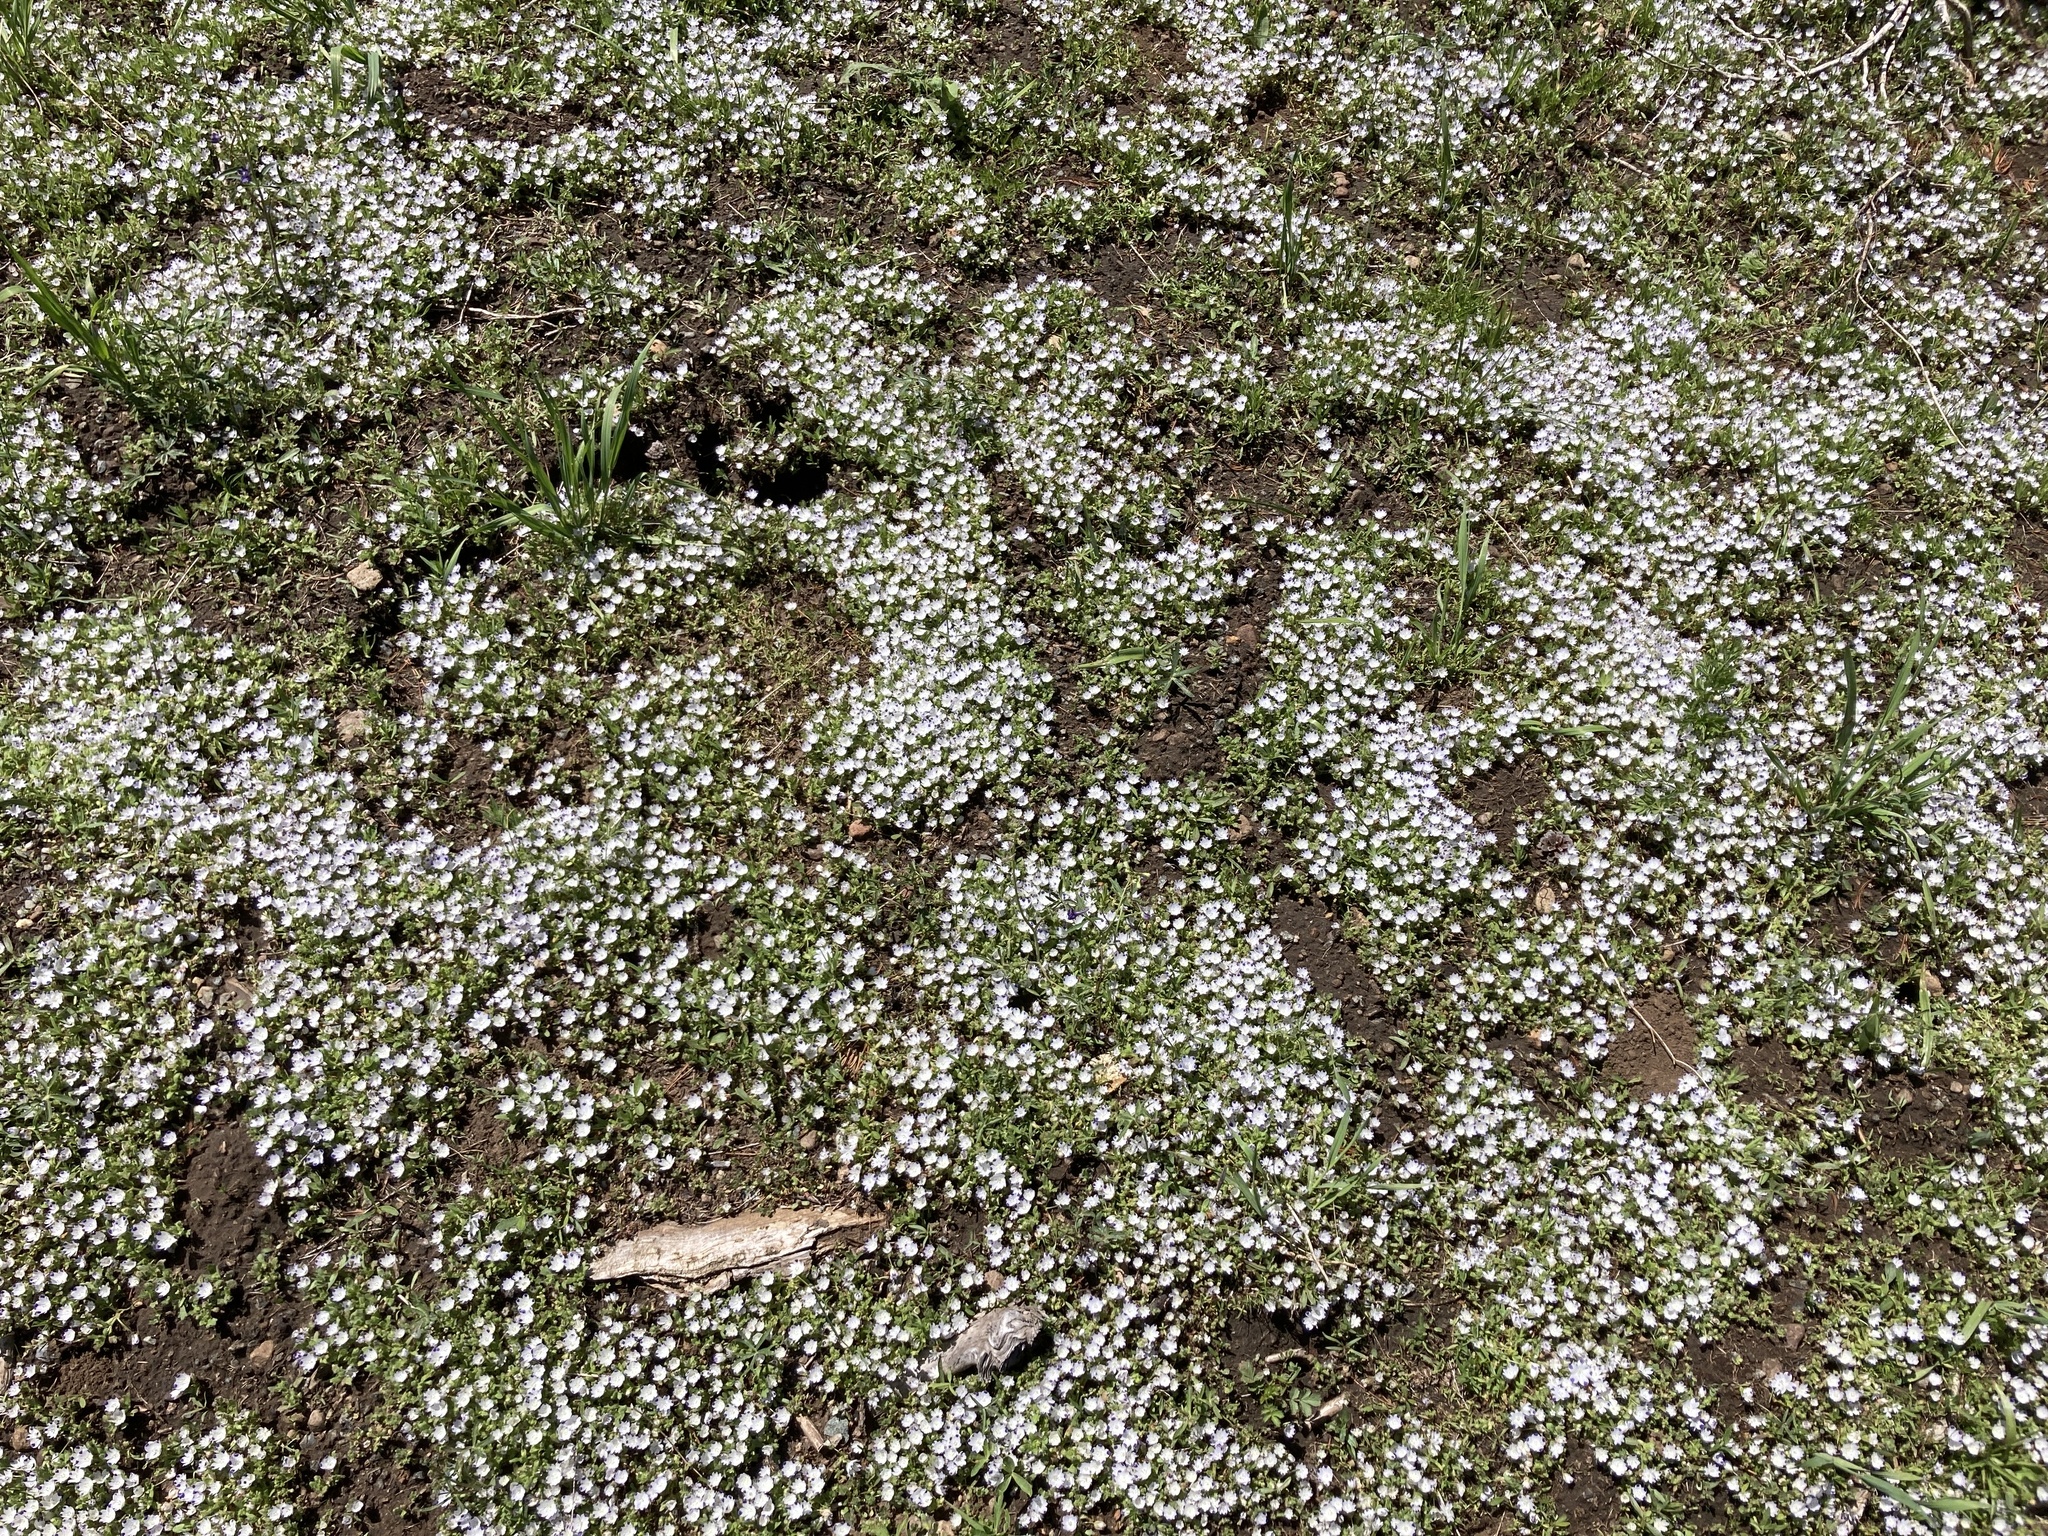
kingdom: Plantae
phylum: Tracheophyta
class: Magnoliopsida
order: Boraginales
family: Hydrophyllaceae
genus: Nemophila
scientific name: Nemophila maculata
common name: Fivespot
